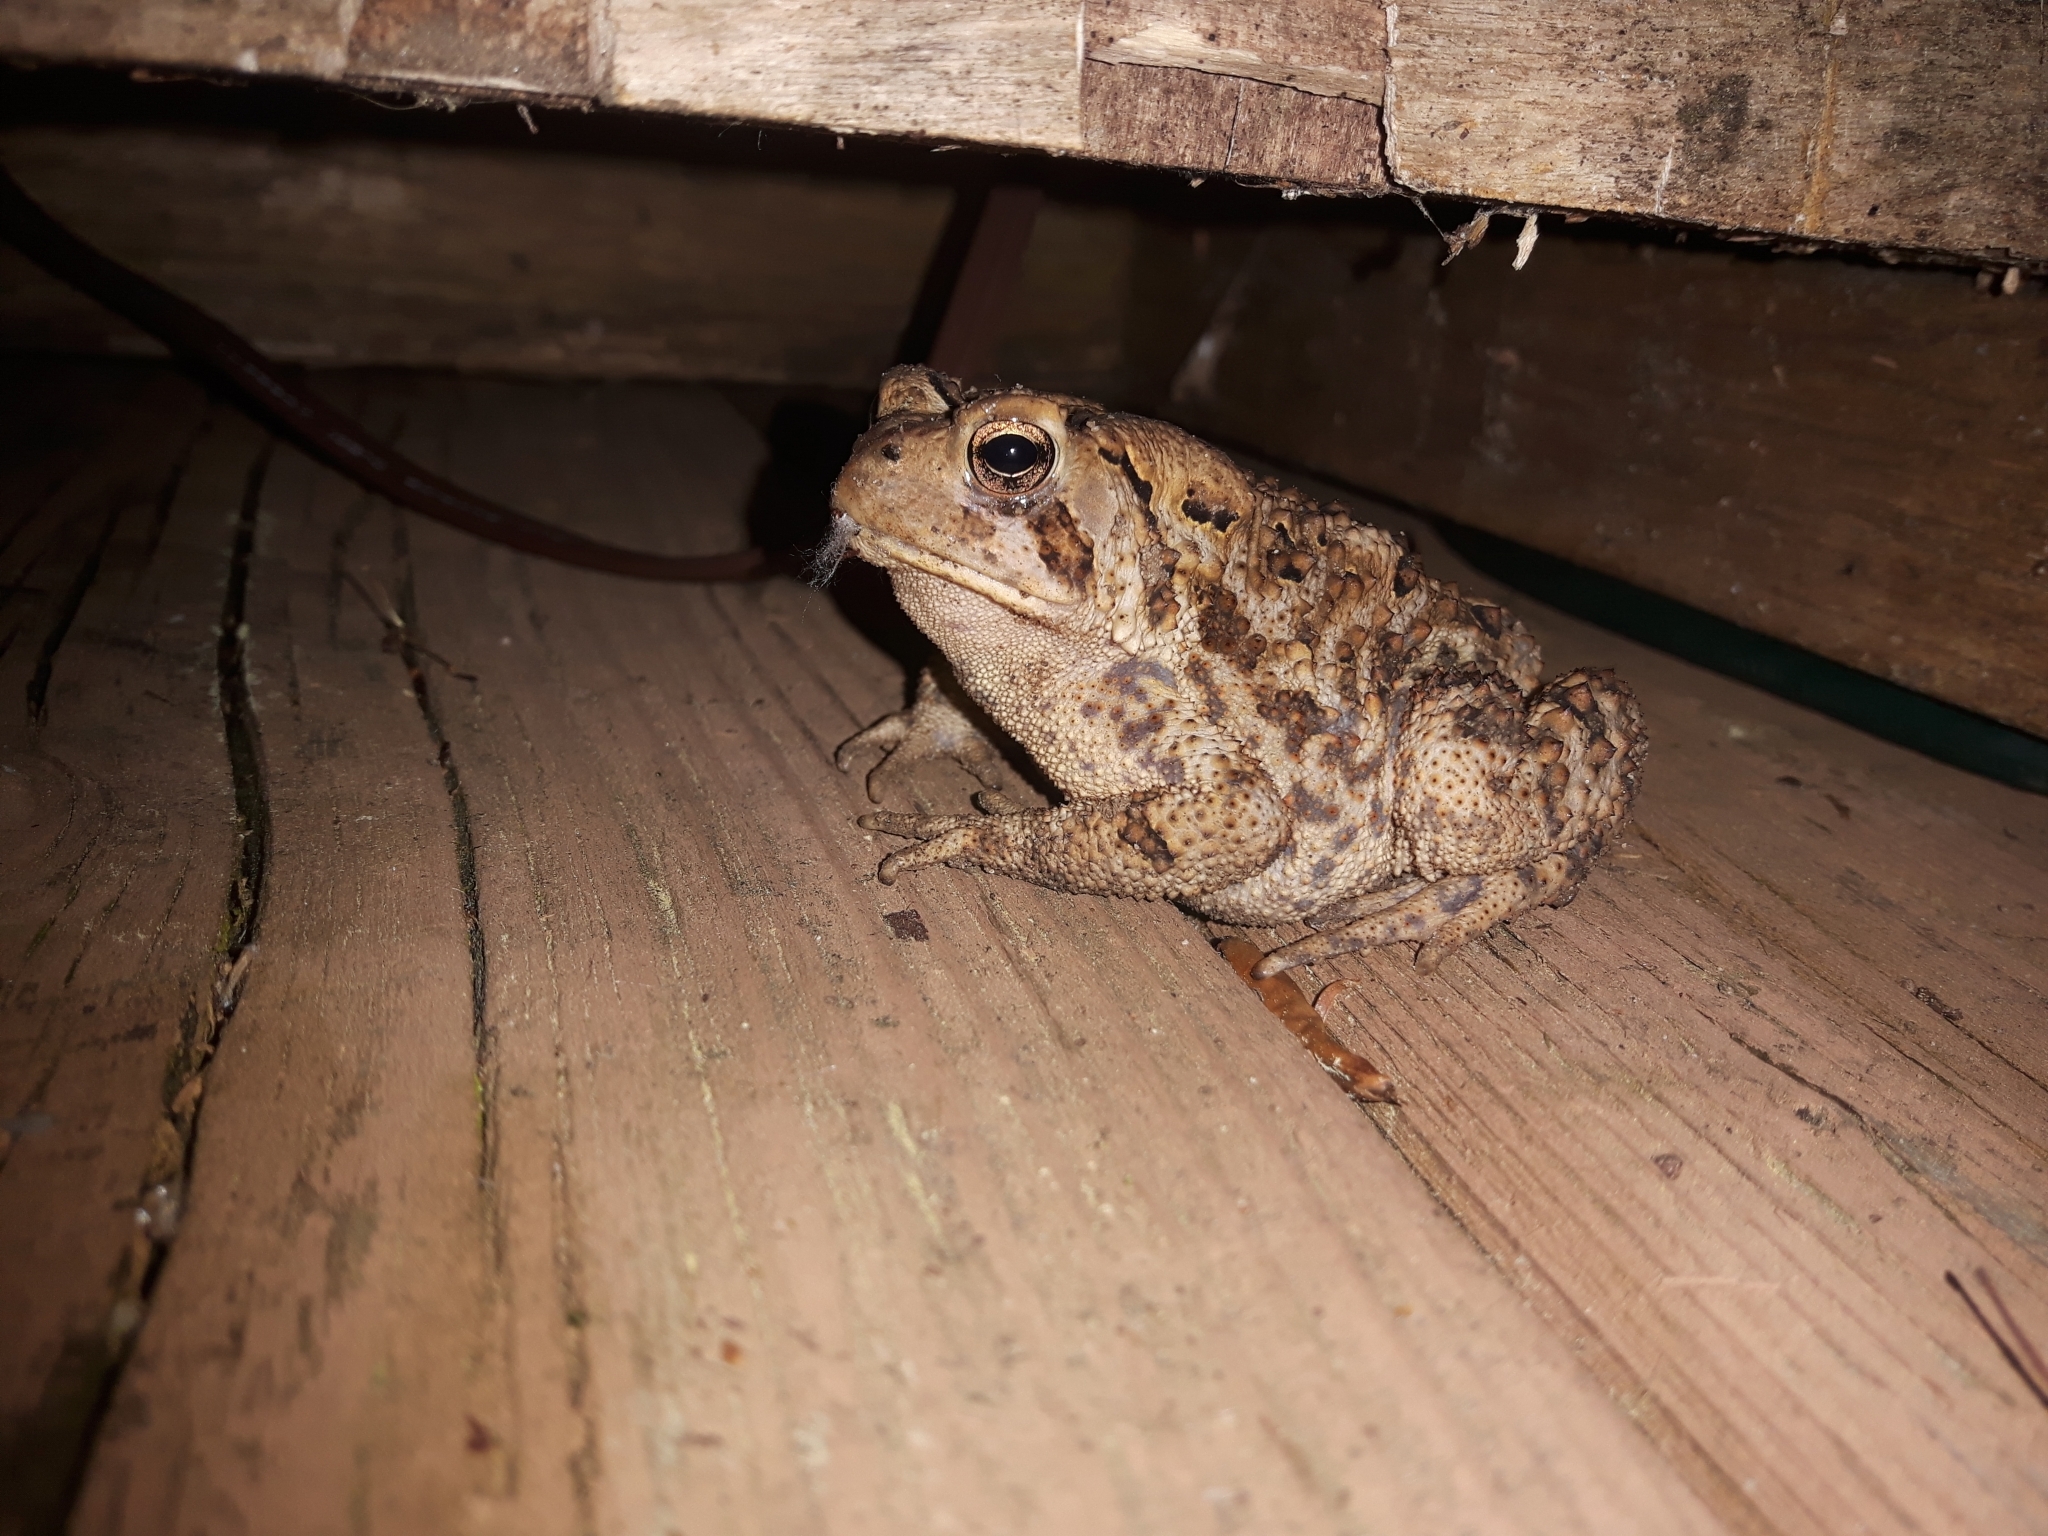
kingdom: Animalia
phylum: Chordata
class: Amphibia
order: Anura
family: Bufonidae
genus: Anaxyrus
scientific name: Anaxyrus americanus
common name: American toad
